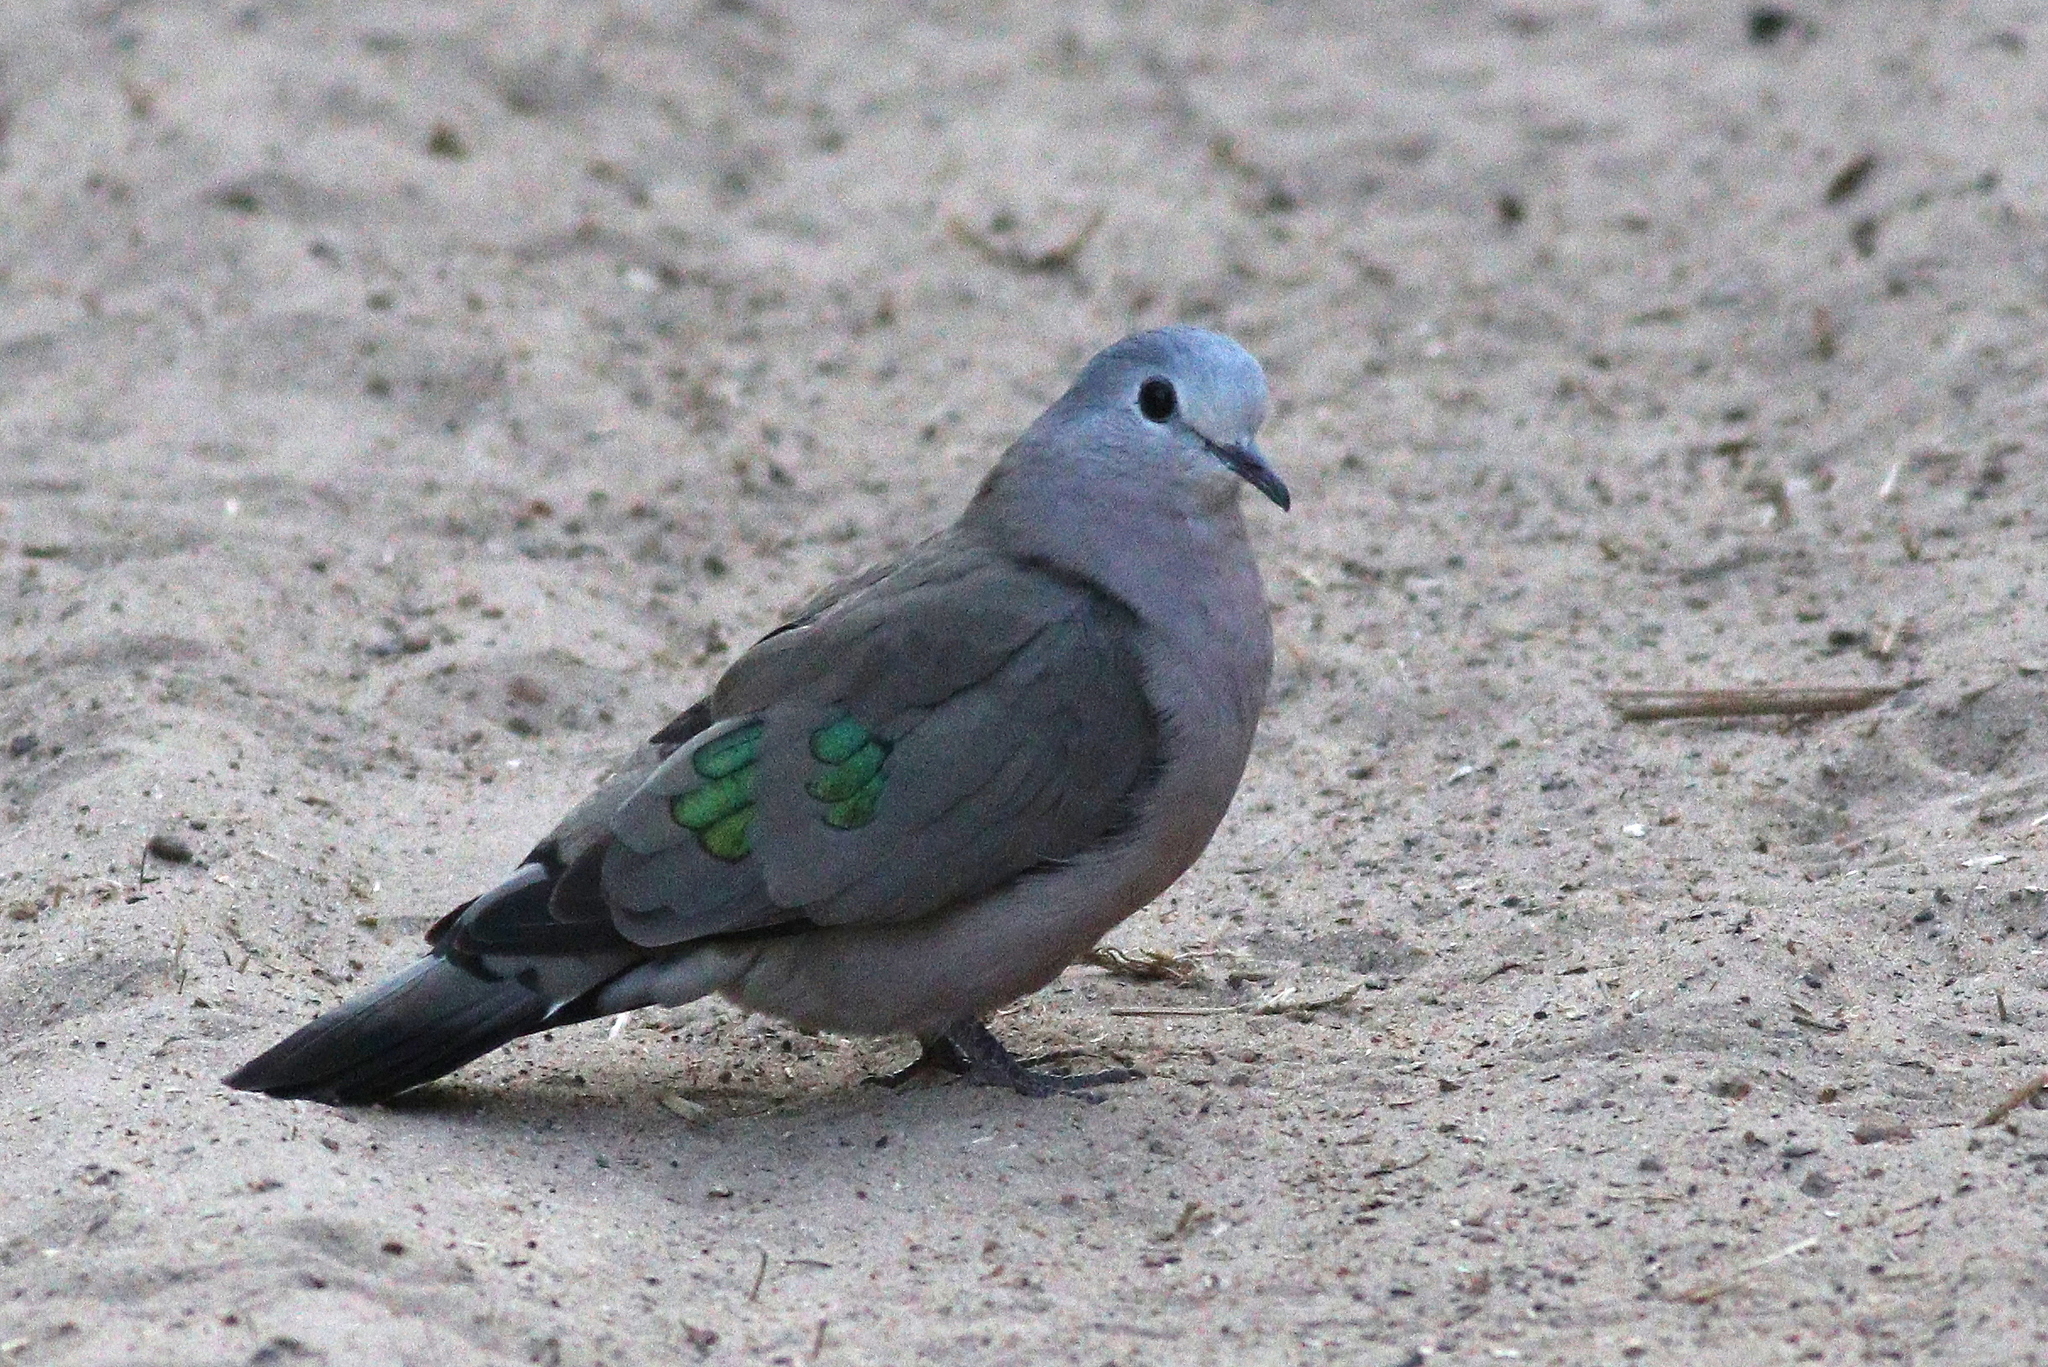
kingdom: Animalia
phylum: Chordata
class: Aves
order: Columbiformes
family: Columbidae
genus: Turtur
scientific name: Turtur chalcospilos
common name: Emerald-spotted wood dove
